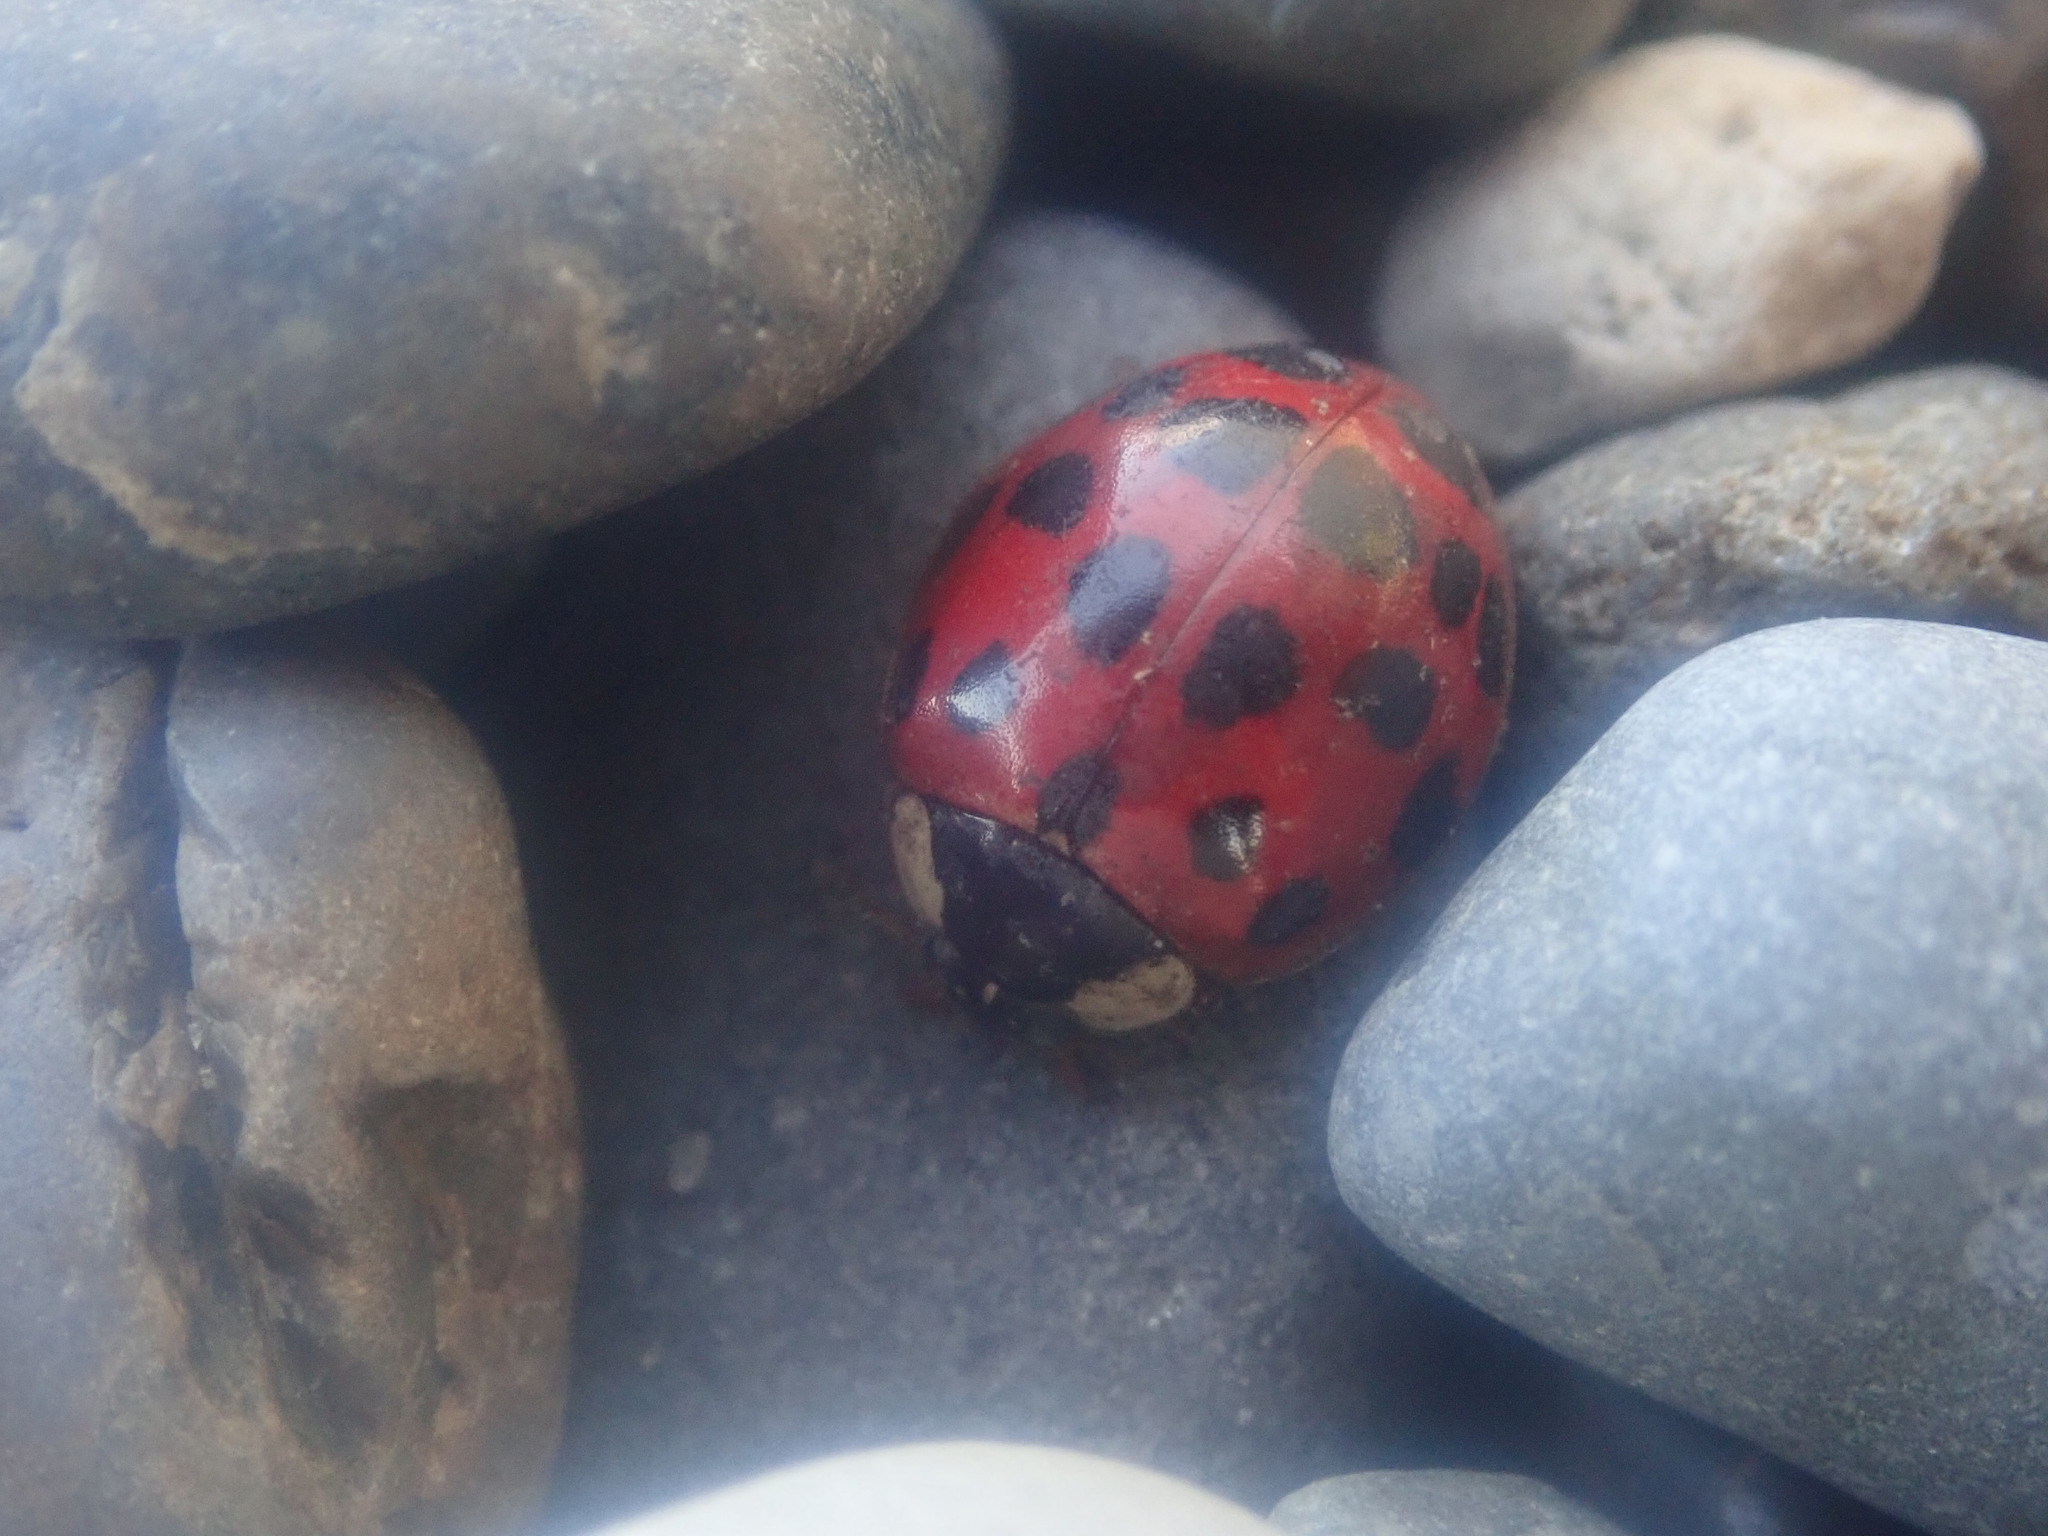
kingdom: Animalia
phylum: Arthropoda
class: Insecta
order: Coleoptera
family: Coccinellidae
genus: Harmonia
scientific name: Harmonia axyridis
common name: Harlequin ladybird
